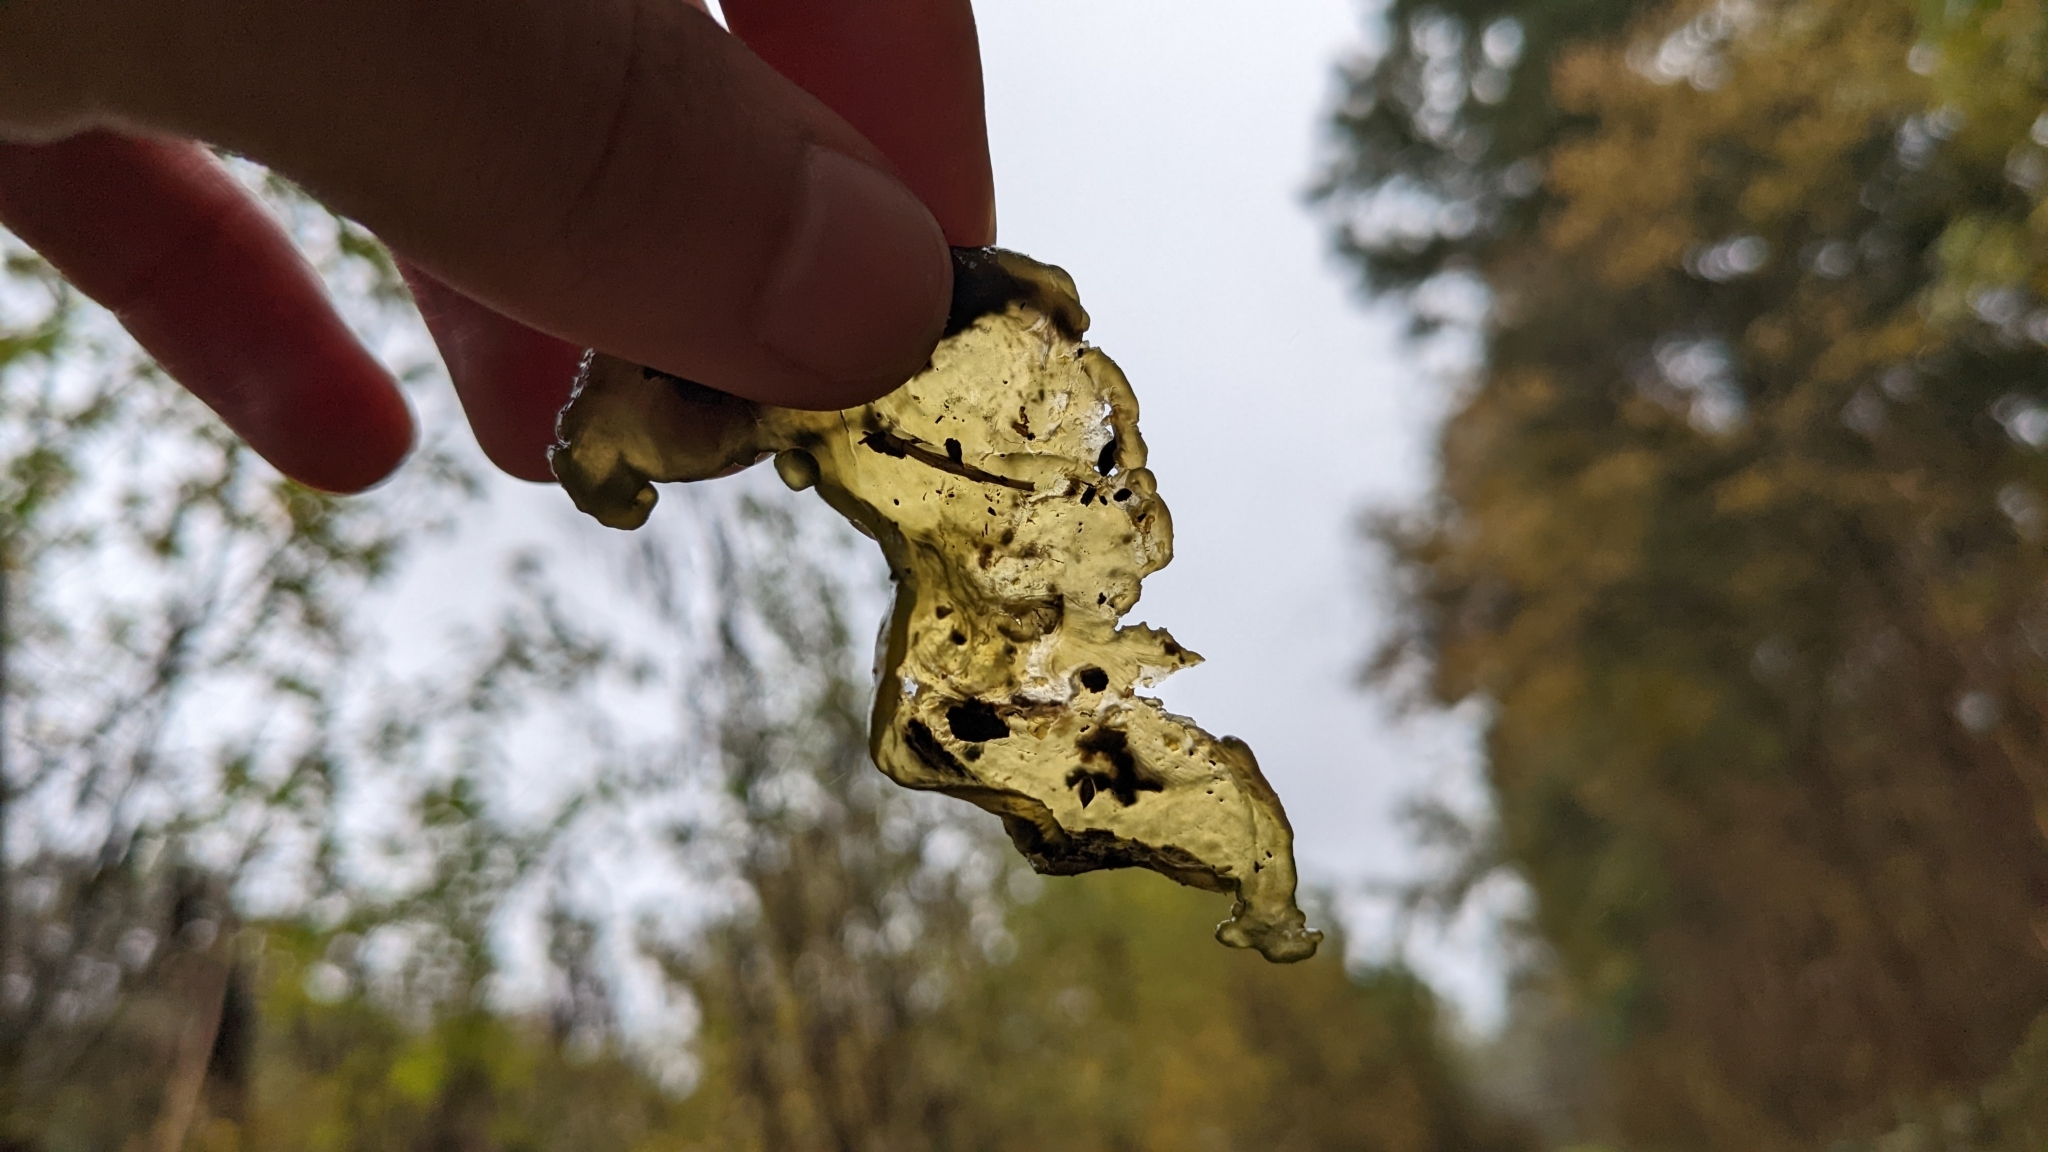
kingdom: Bacteria
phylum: Cyanobacteria
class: Cyanobacteriia
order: Cyanobacteriales
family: Nostocaceae
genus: Nostoc
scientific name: Nostoc commune
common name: Star jelly
